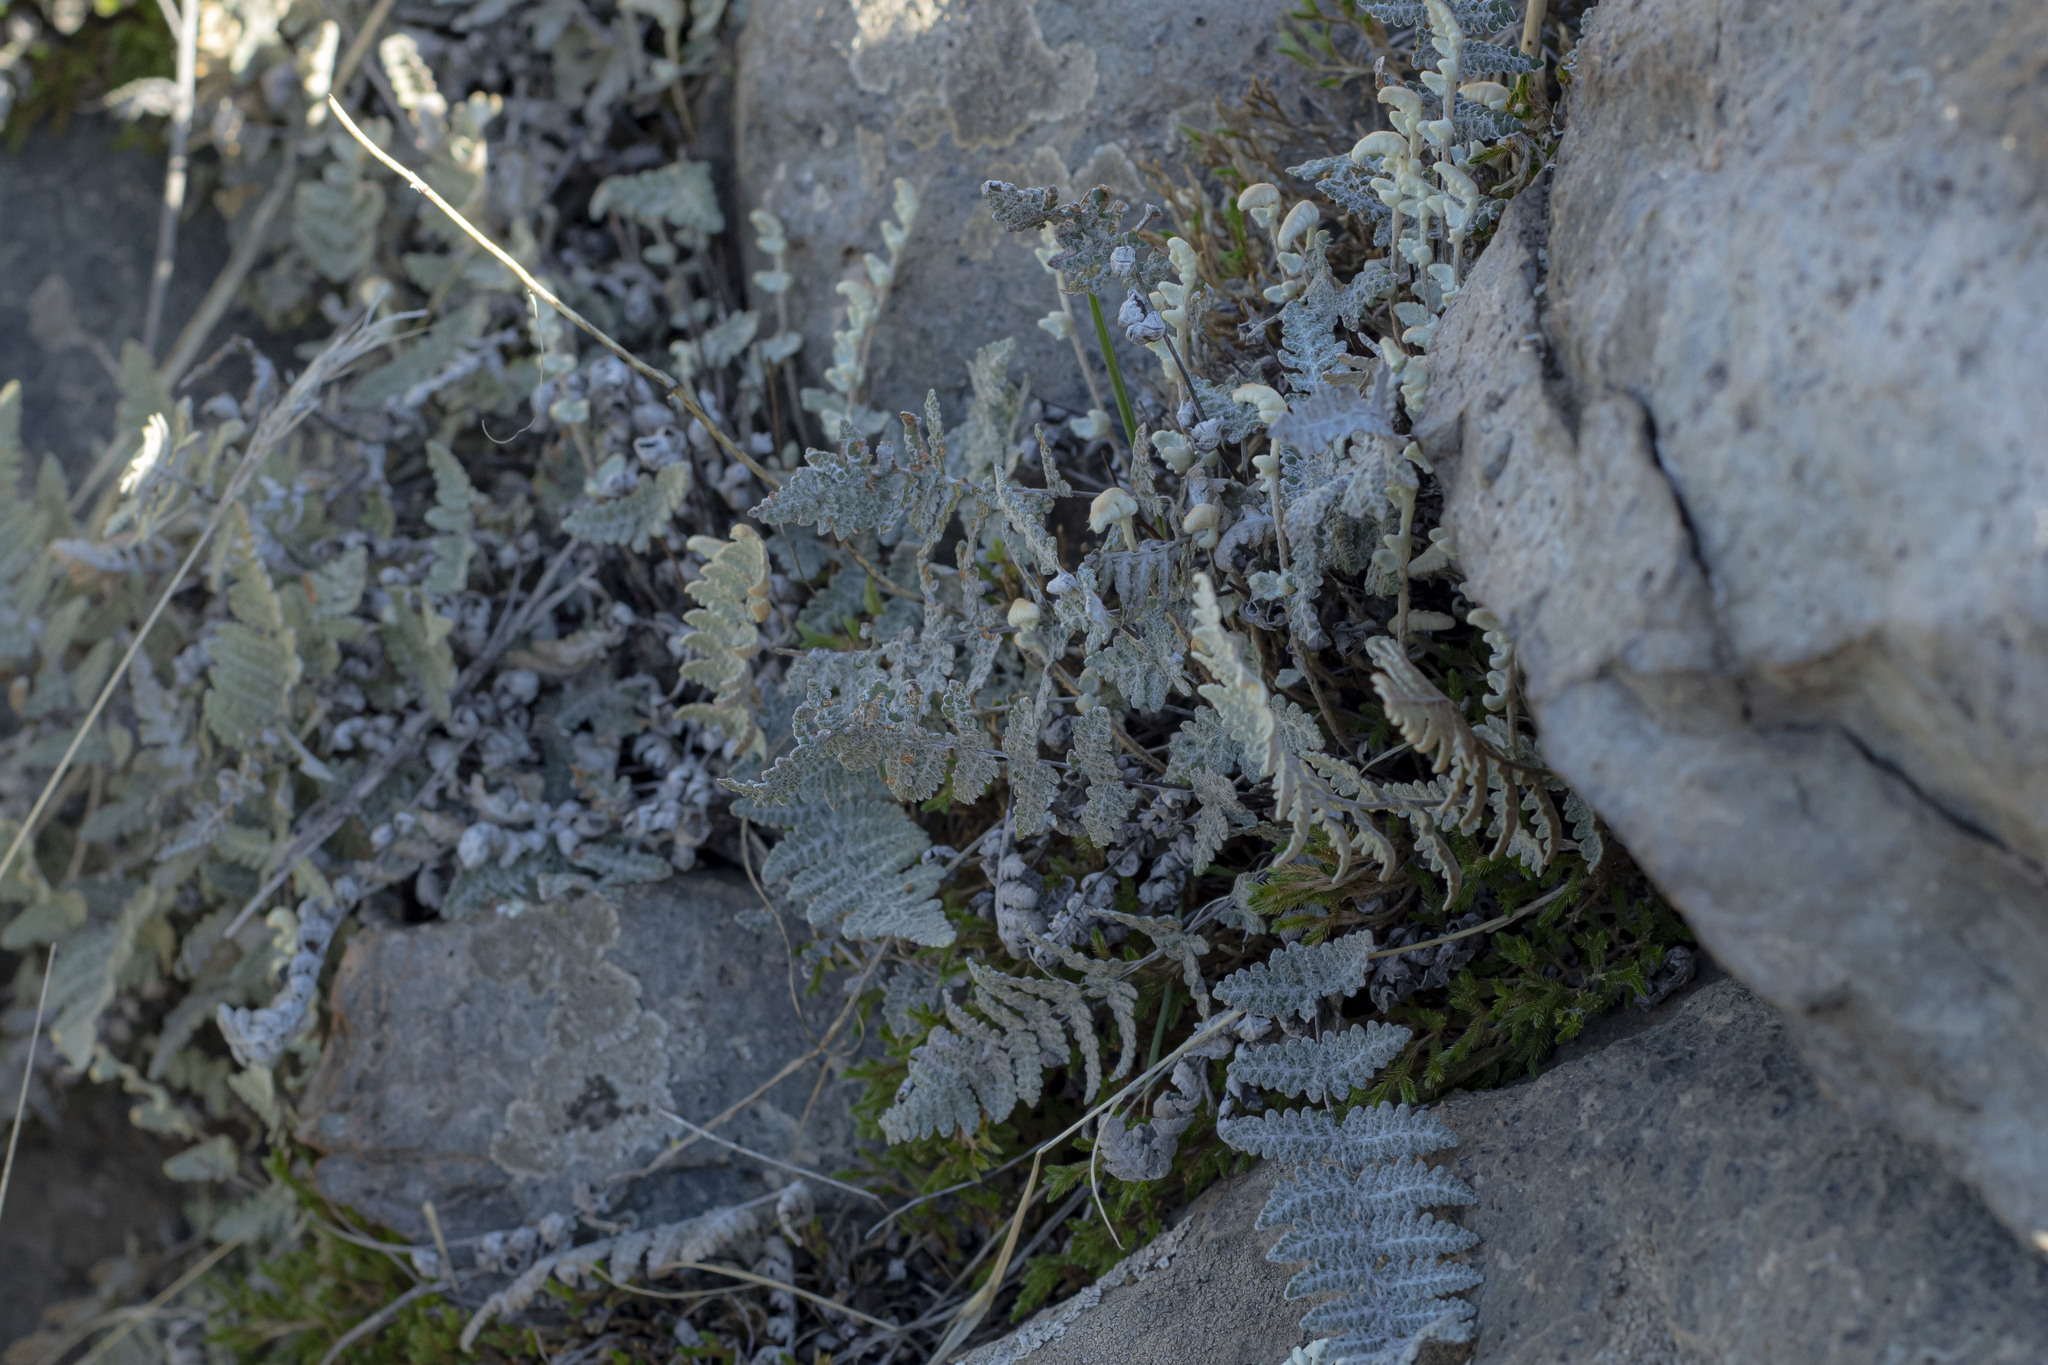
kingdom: Plantae
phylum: Tracheophyta
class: Polypodiopsida
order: Polypodiales
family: Pteridaceae
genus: Myriopteris
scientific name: Myriopteris newberryi
